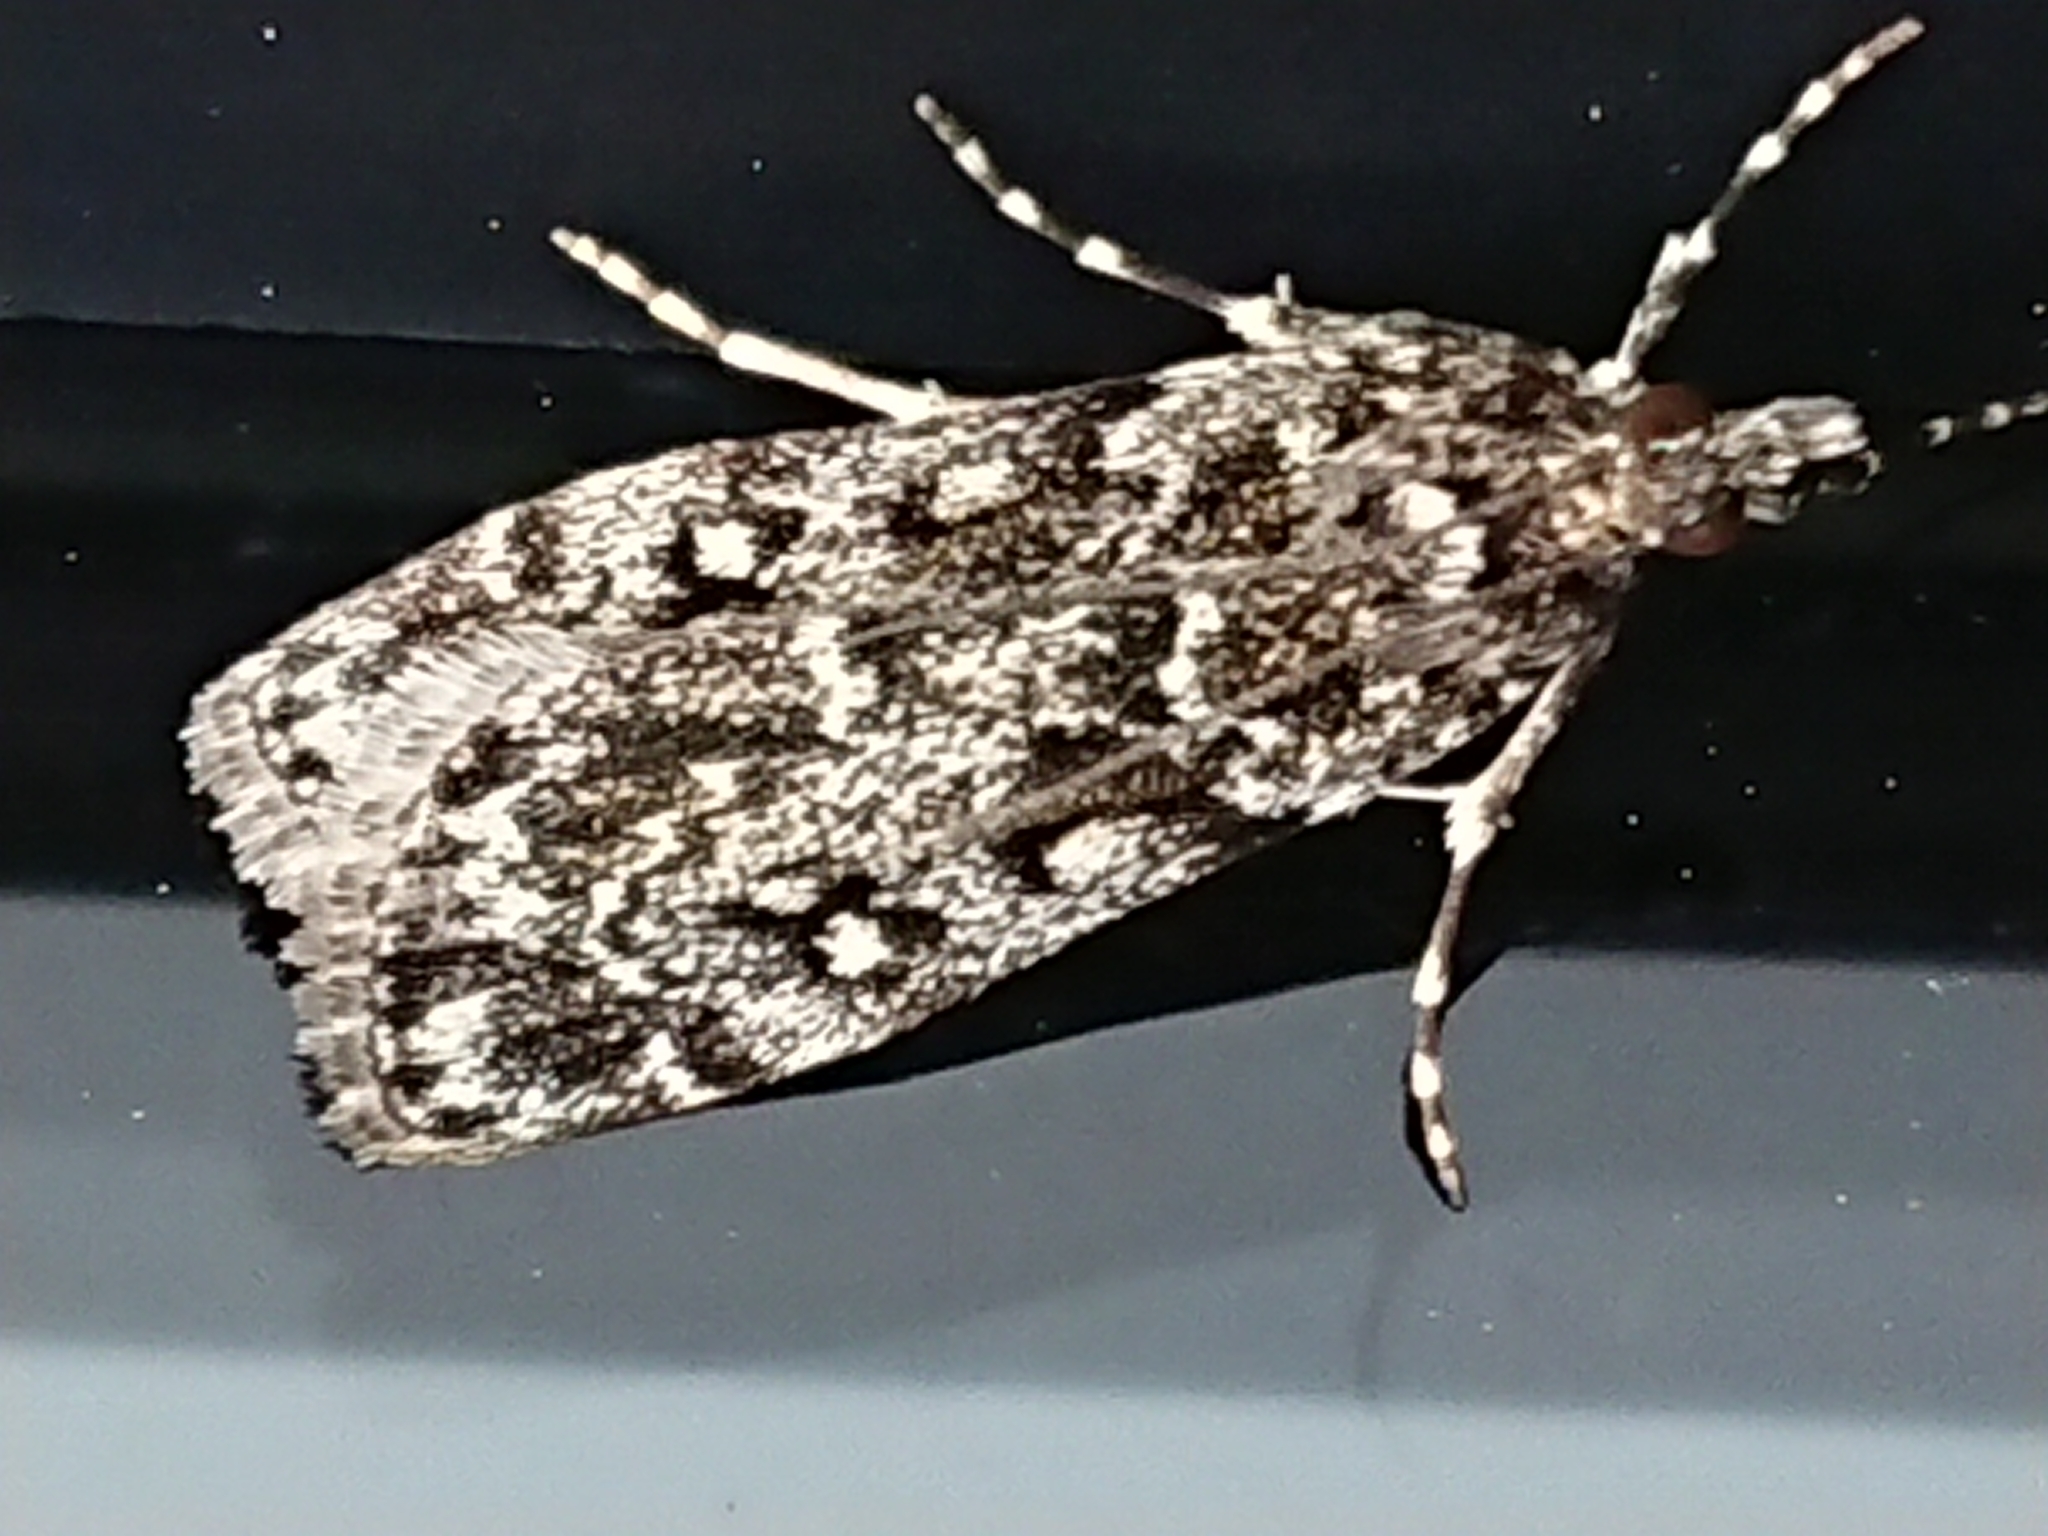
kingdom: Animalia
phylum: Arthropoda
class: Insecta
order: Lepidoptera
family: Crambidae
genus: Eudonia
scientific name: Eudonia philerga
